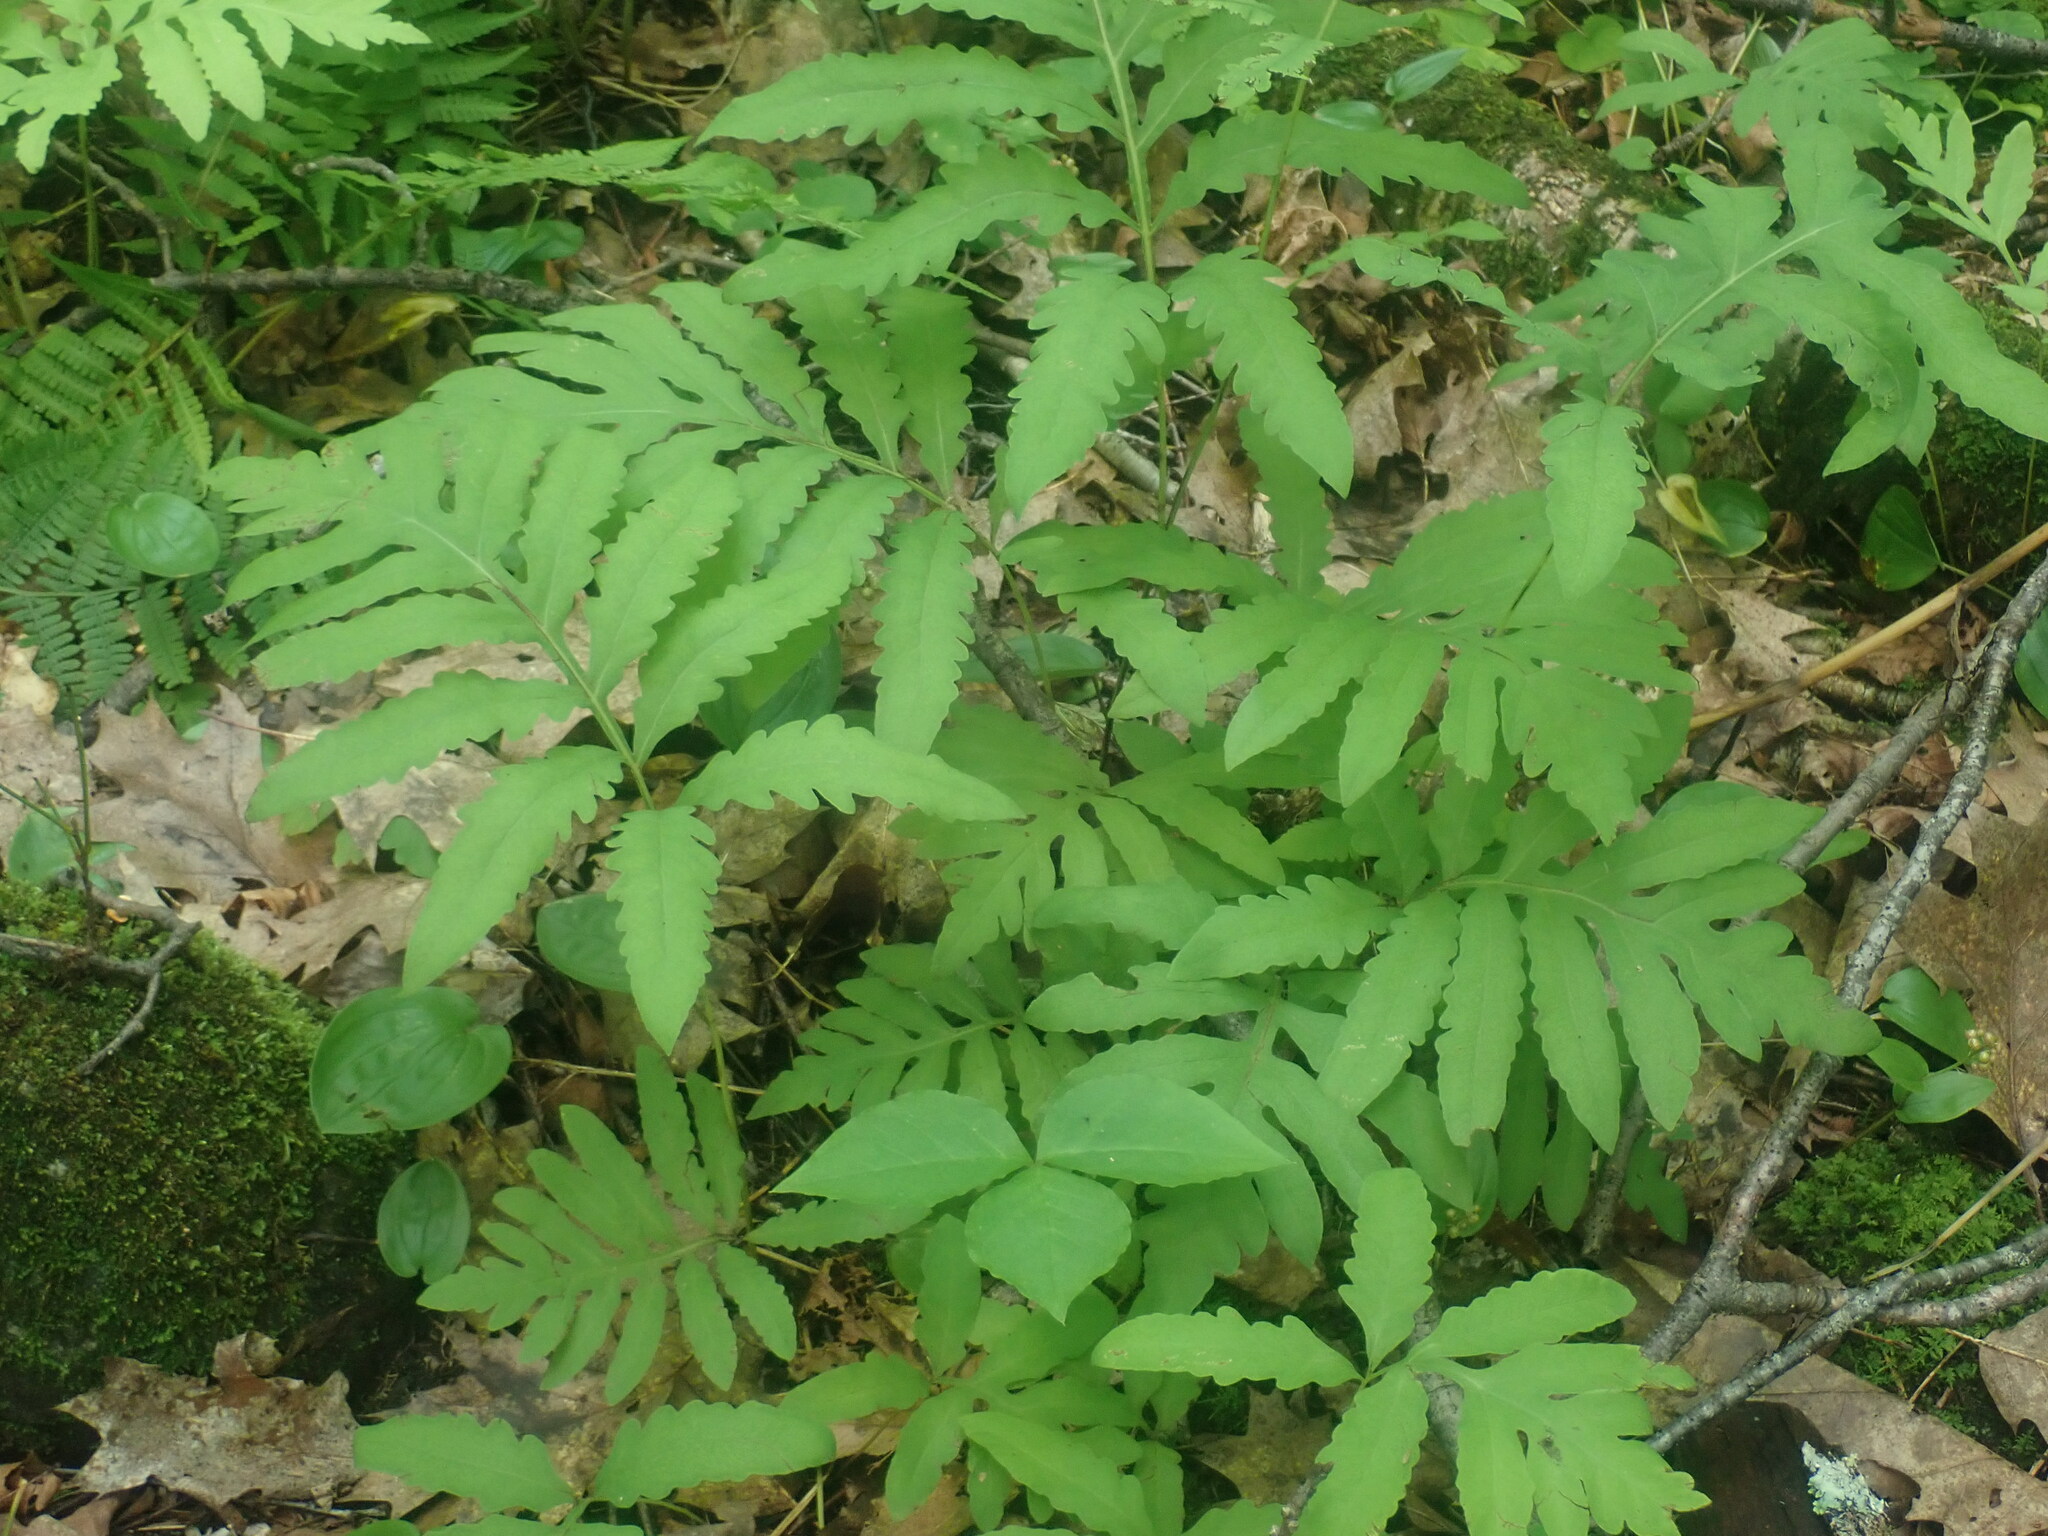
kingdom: Plantae
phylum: Tracheophyta
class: Polypodiopsida
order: Polypodiales
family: Onocleaceae
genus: Onoclea
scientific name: Onoclea sensibilis
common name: Sensitive fern
